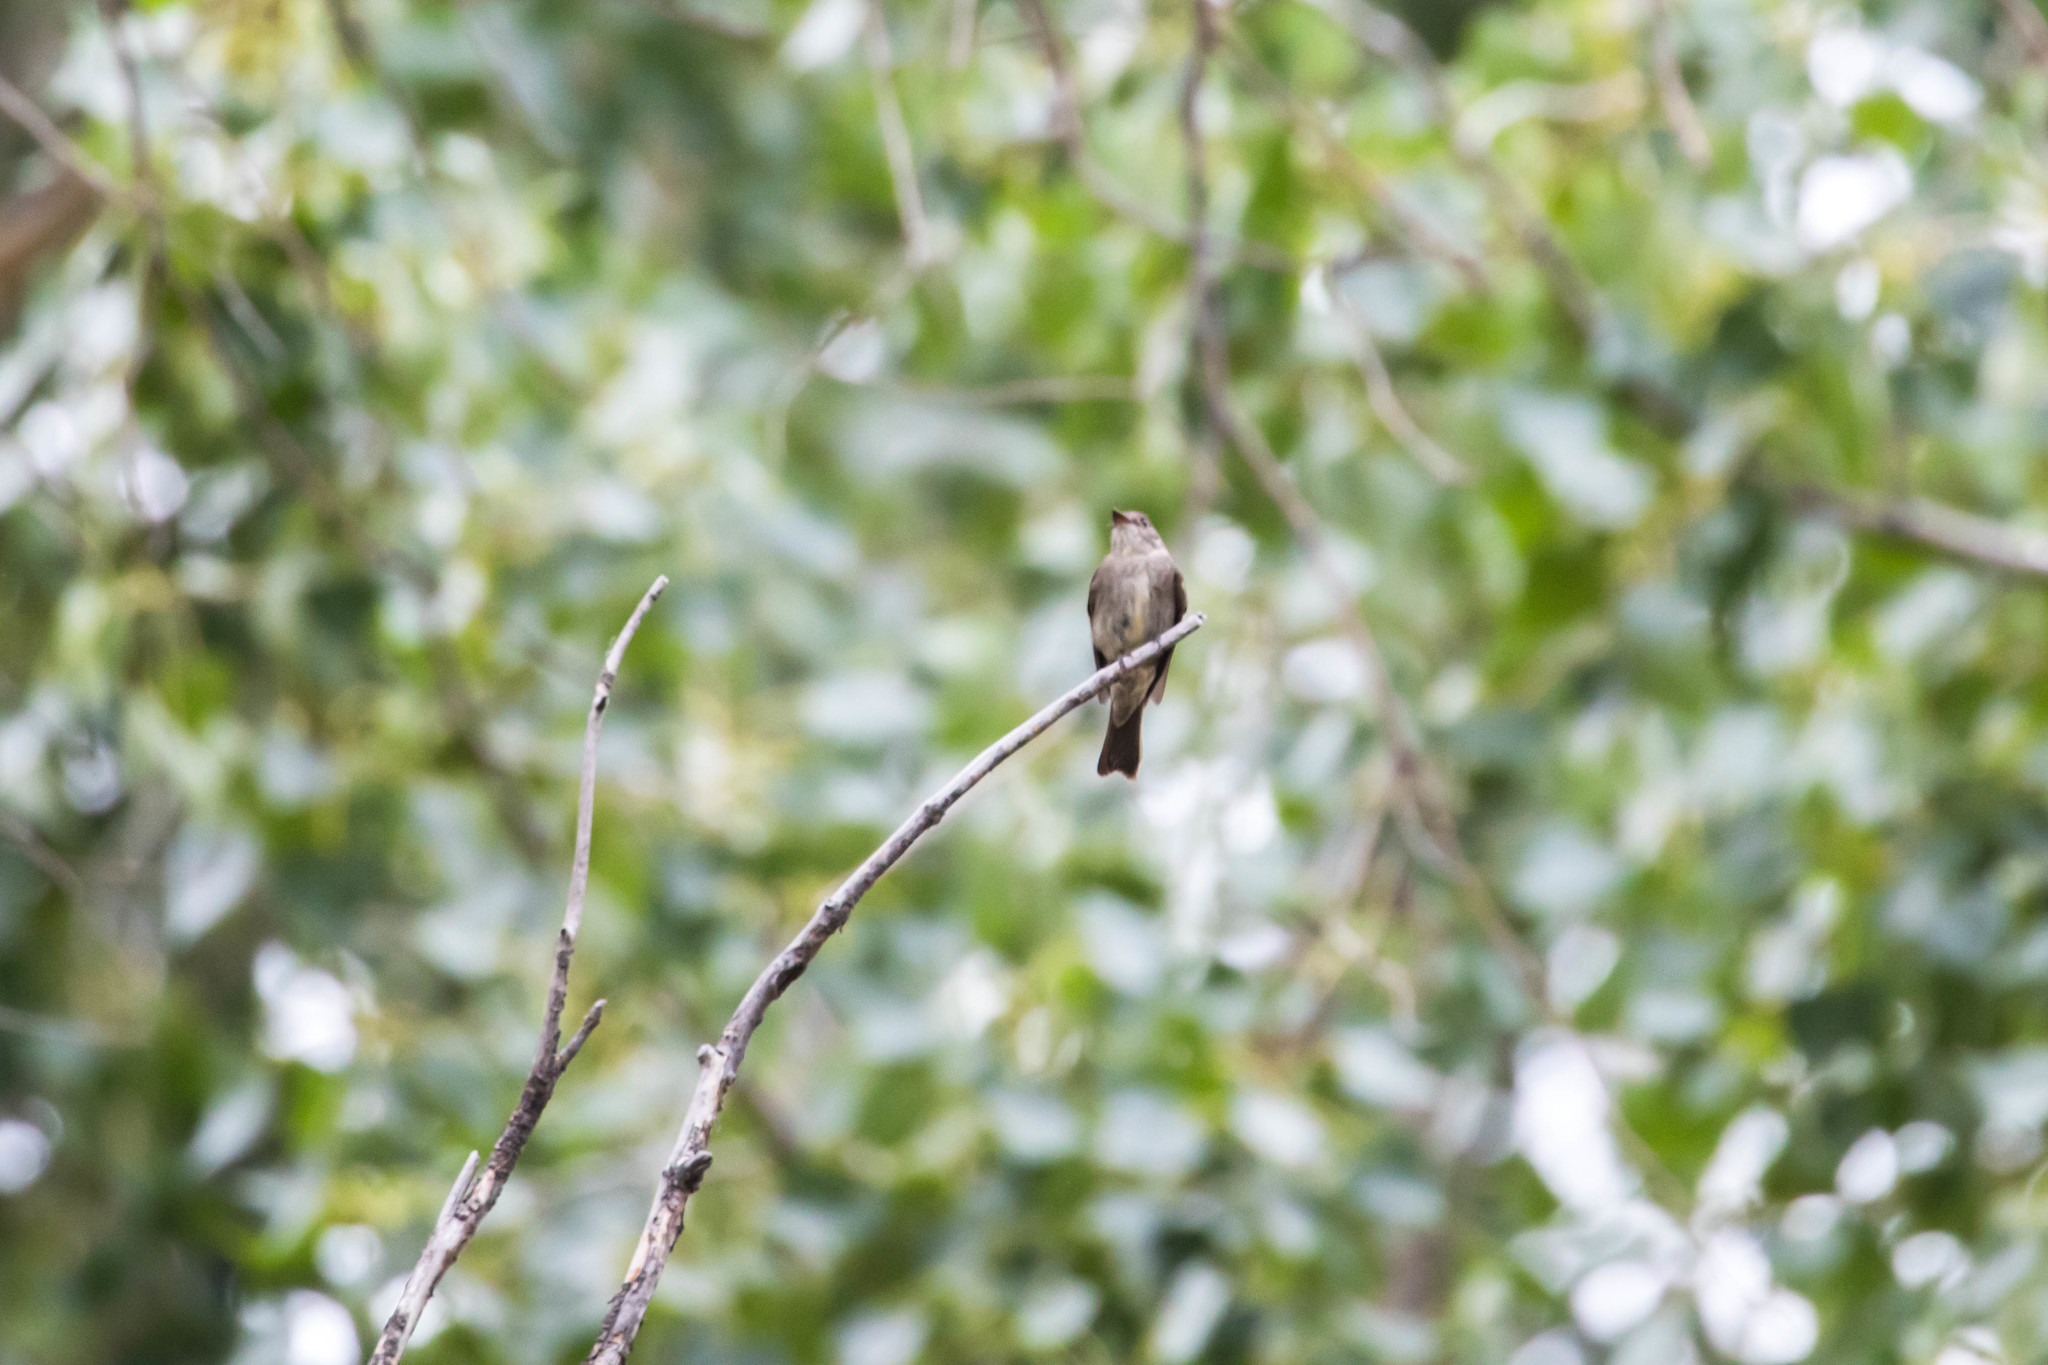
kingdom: Animalia
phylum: Chordata
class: Aves
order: Passeriformes
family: Tyrannidae
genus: Contopus
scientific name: Contopus sordidulus
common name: Western wood-pewee
